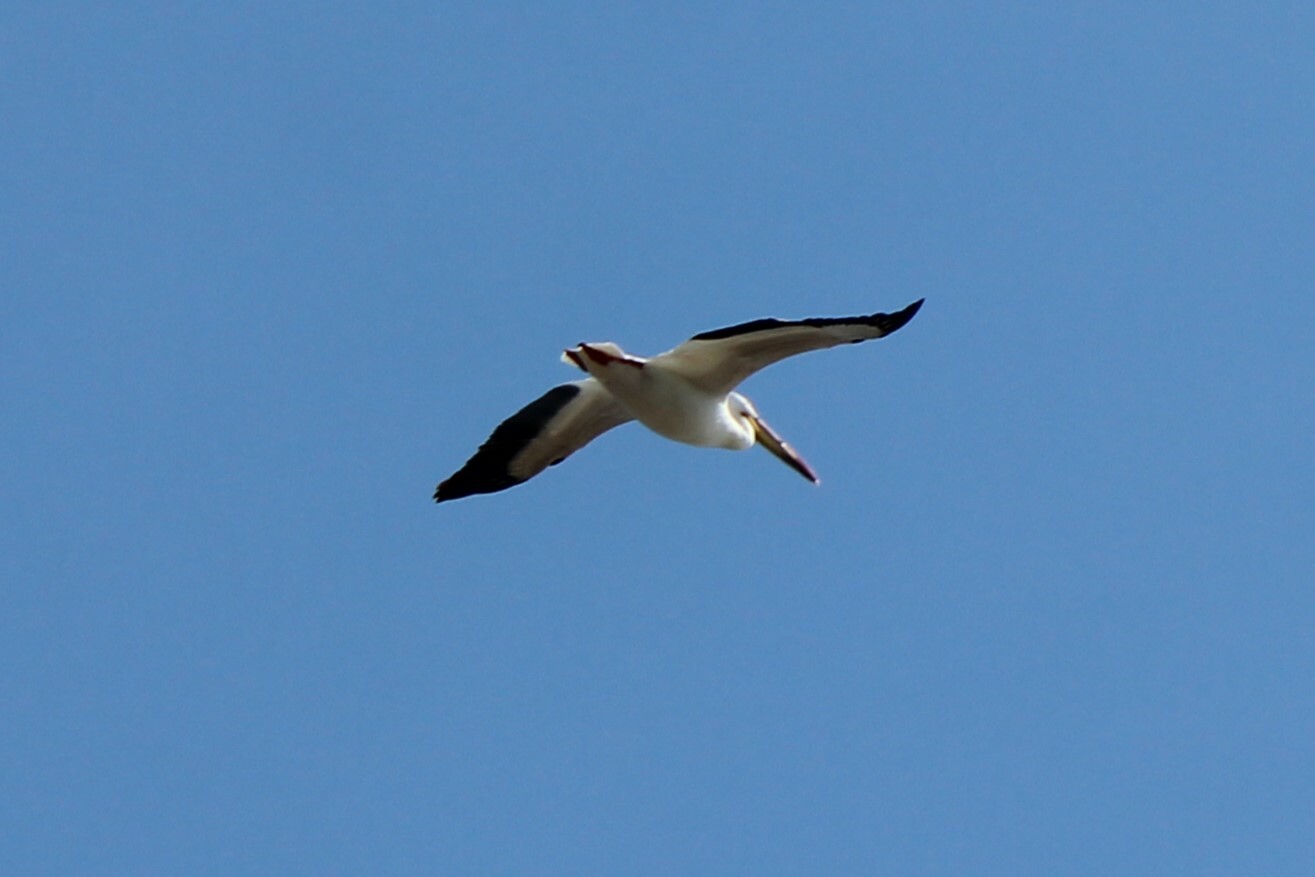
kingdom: Animalia
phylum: Chordata
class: Aves
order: Pelecaniformes
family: Pelecanidae
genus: Pelecanus
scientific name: Pelecanus erythrorhynchos
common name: American white pelican
